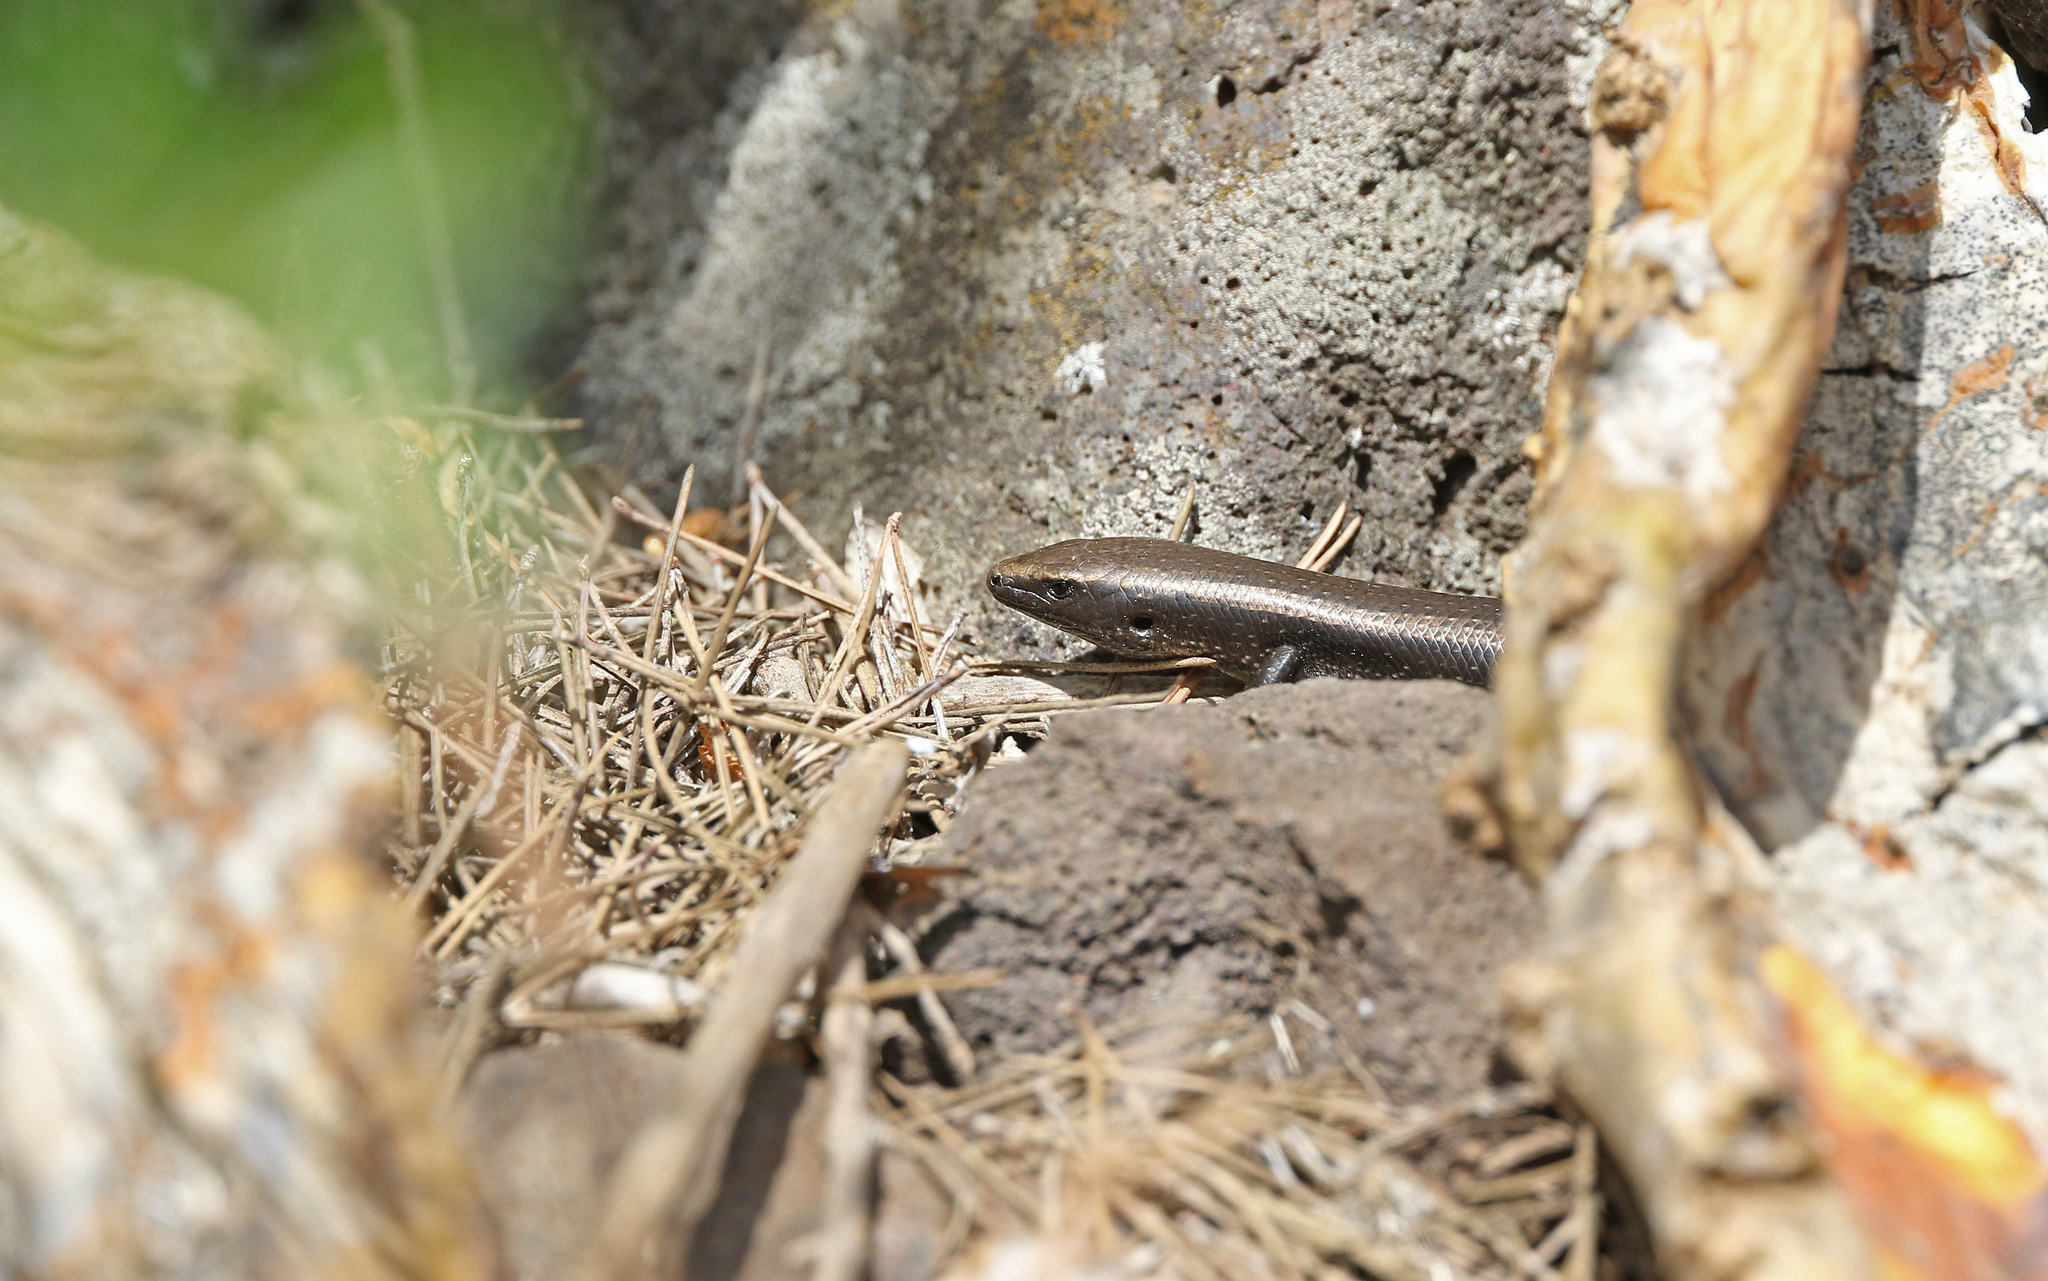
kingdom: Animalia
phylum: Chordata
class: Squamata
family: Scincidae
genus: Chalcides
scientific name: Chalcides viridanus
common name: Canaryan cylindrical skink
